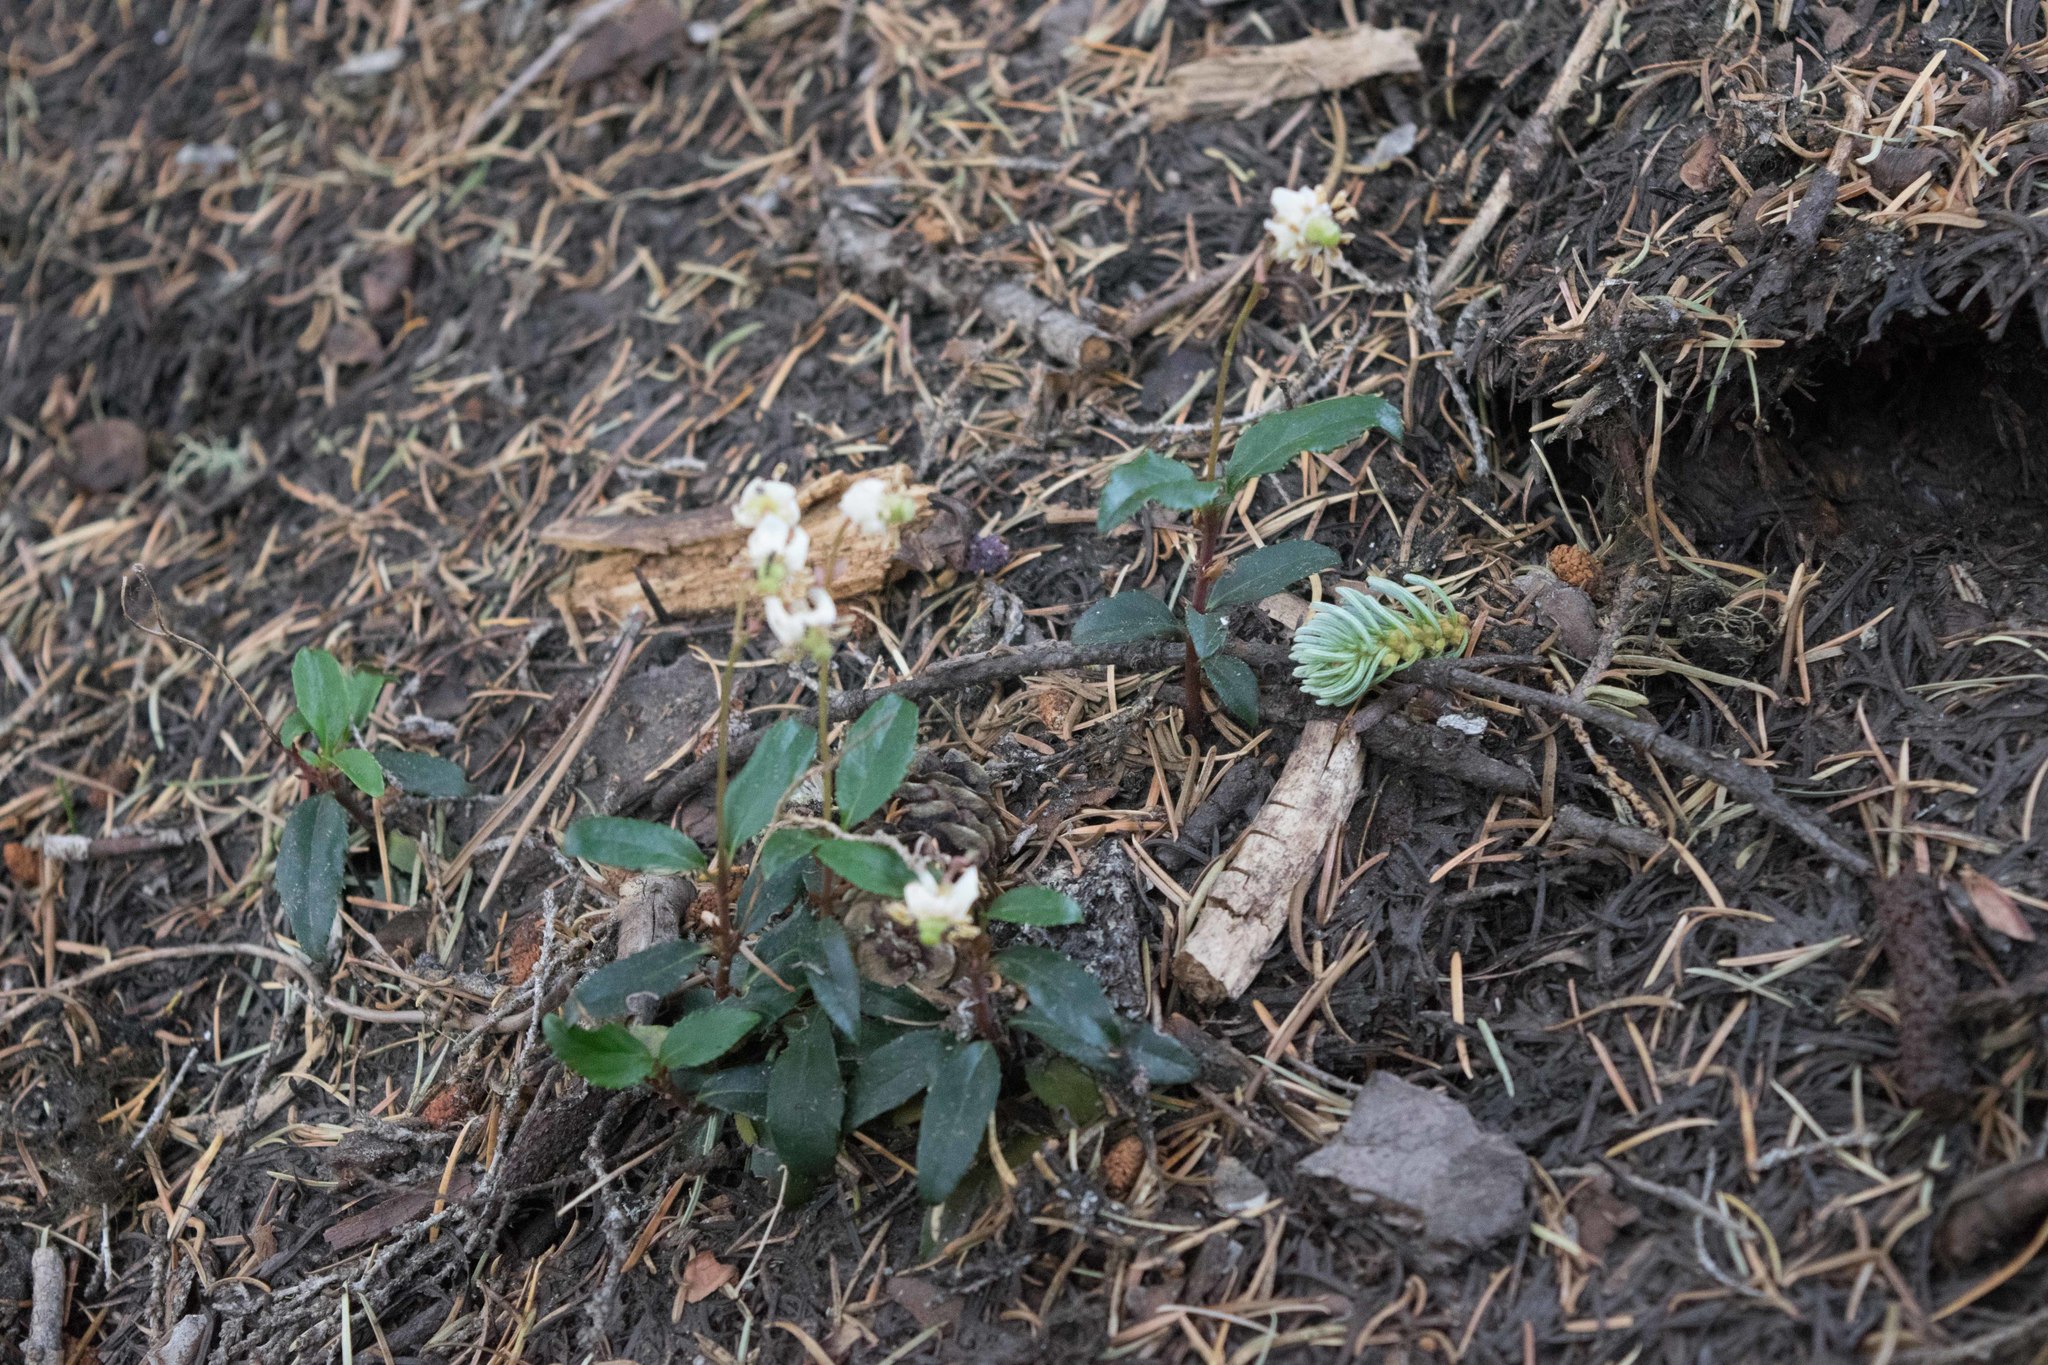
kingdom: Plantae
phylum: Tracheophyta
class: Magnoliopsida
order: Ericales
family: Ericaceae
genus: Chimaphila
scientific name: Chimaphila menziesii
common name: Menzies' pipsissewa
